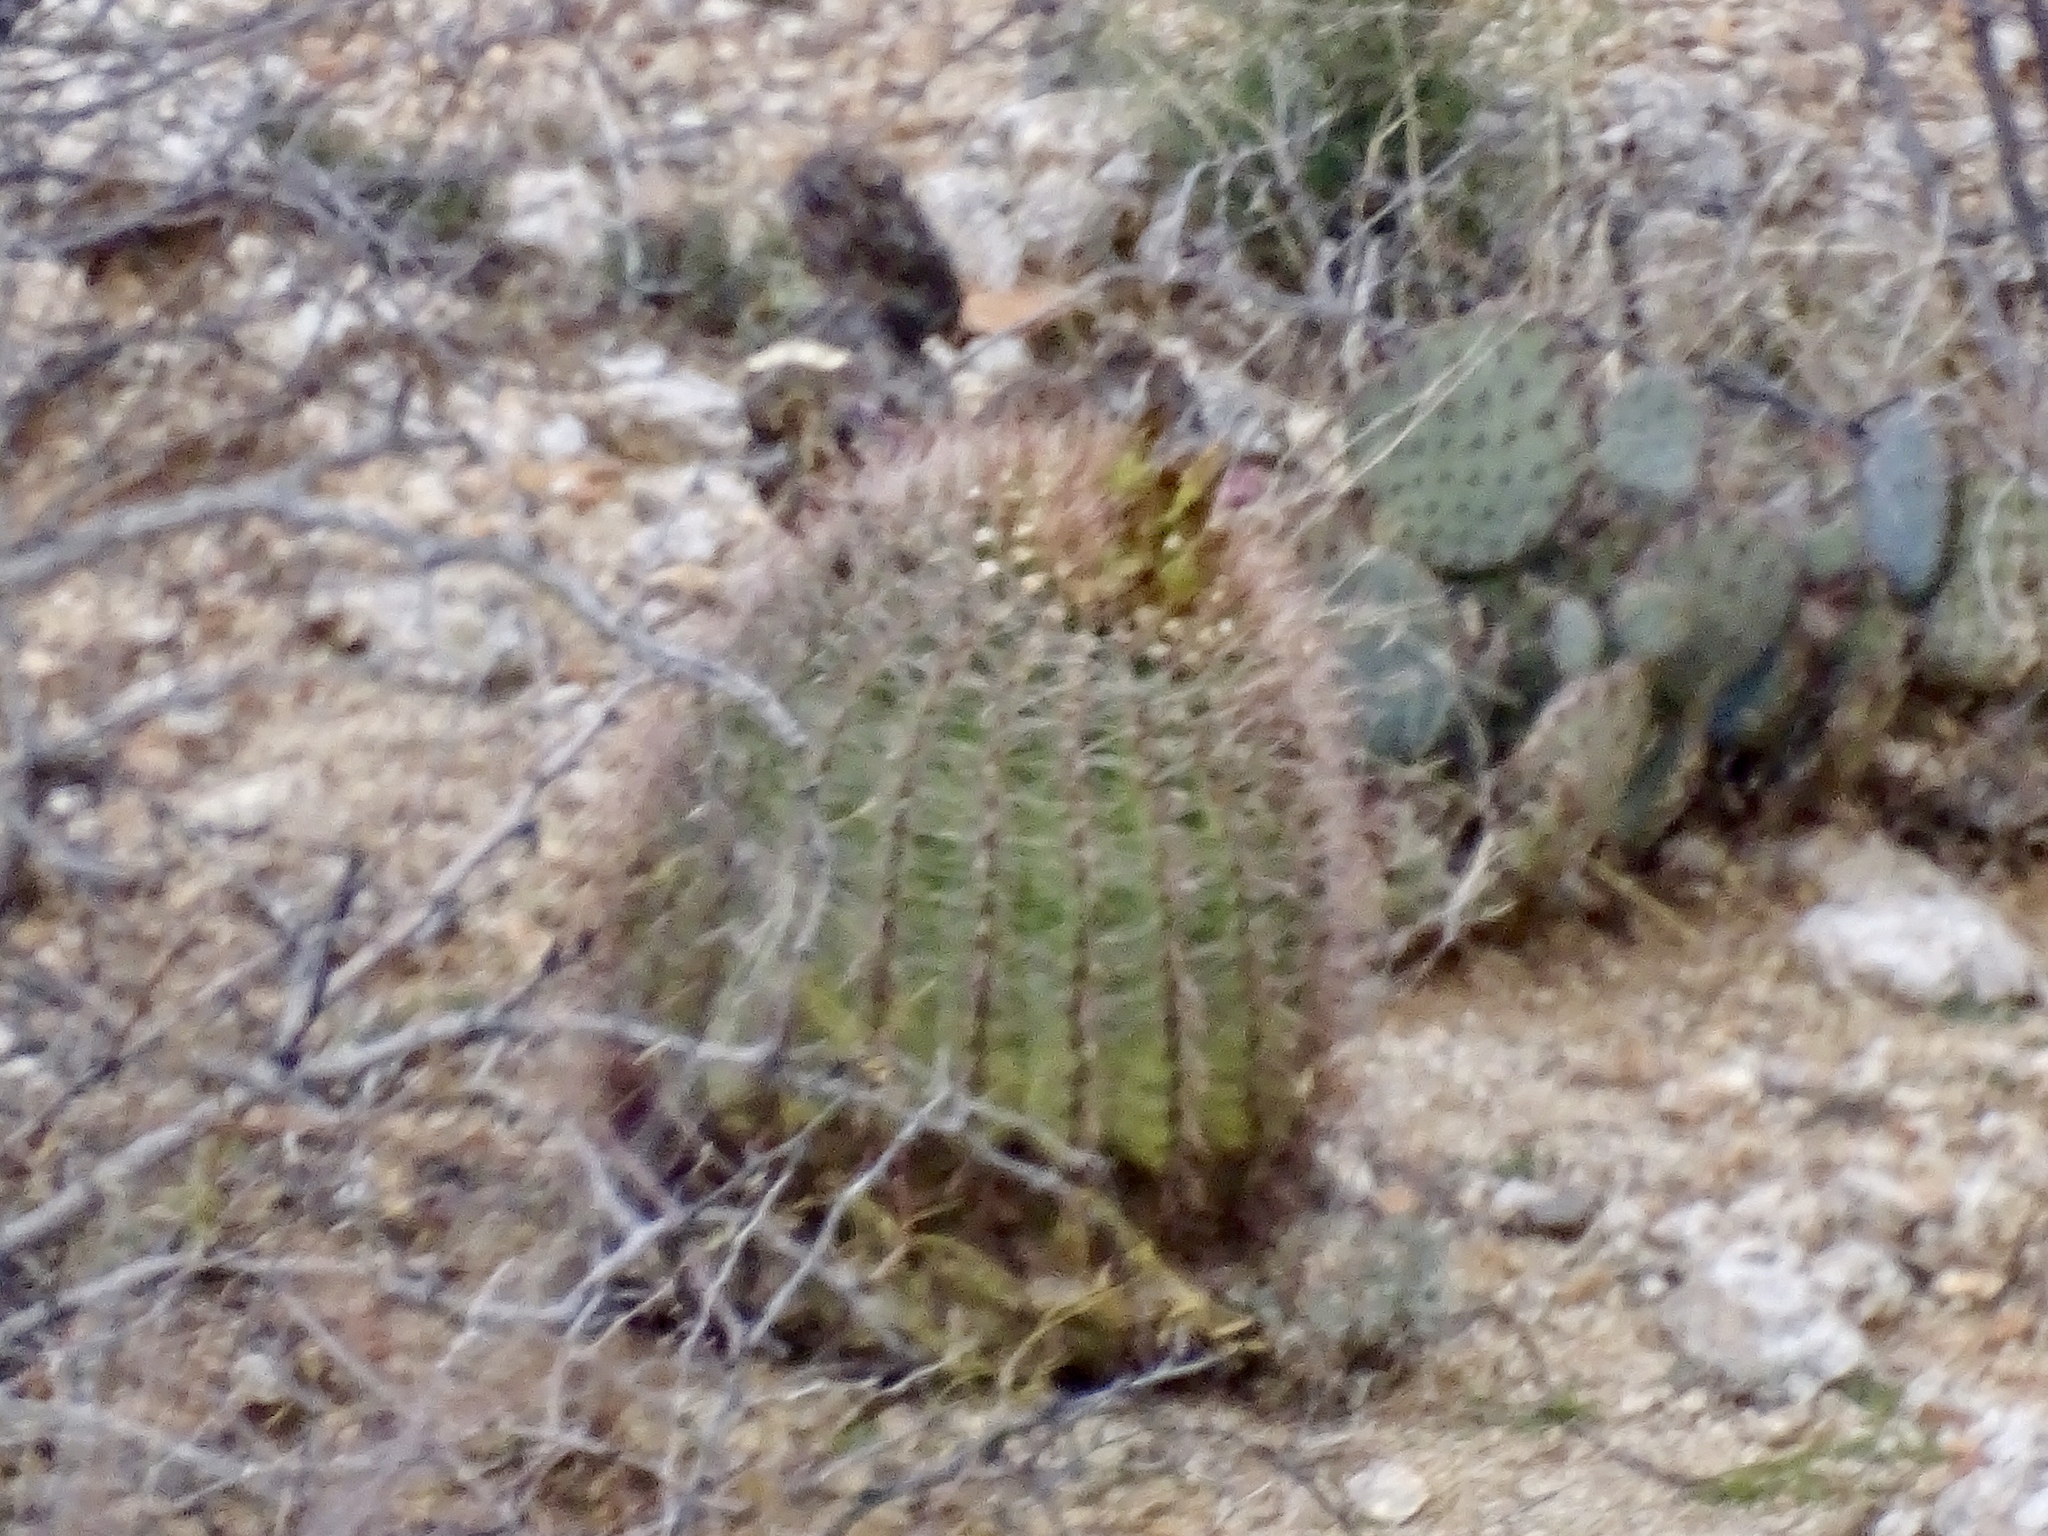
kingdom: Plantae
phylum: Tracheophyta
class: Magnoliopsida
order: Caryophyllales
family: Cactaceae
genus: Ferocactus
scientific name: Ferocactus wislizeni
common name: Candy barrel cactus
